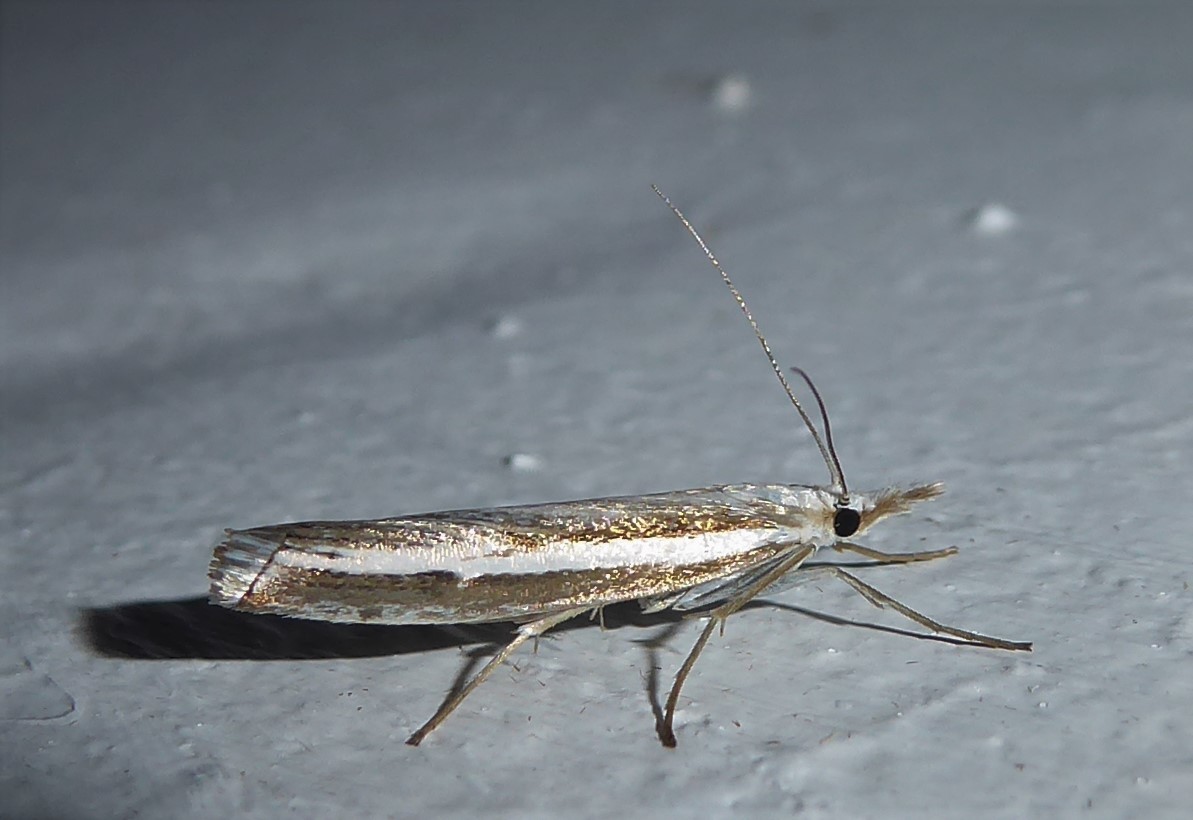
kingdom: Animalia
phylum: Arthropoda
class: Insecta
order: Lepidoptera
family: Crambidae
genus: Orocrambus
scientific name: Orocrambus vittellus
